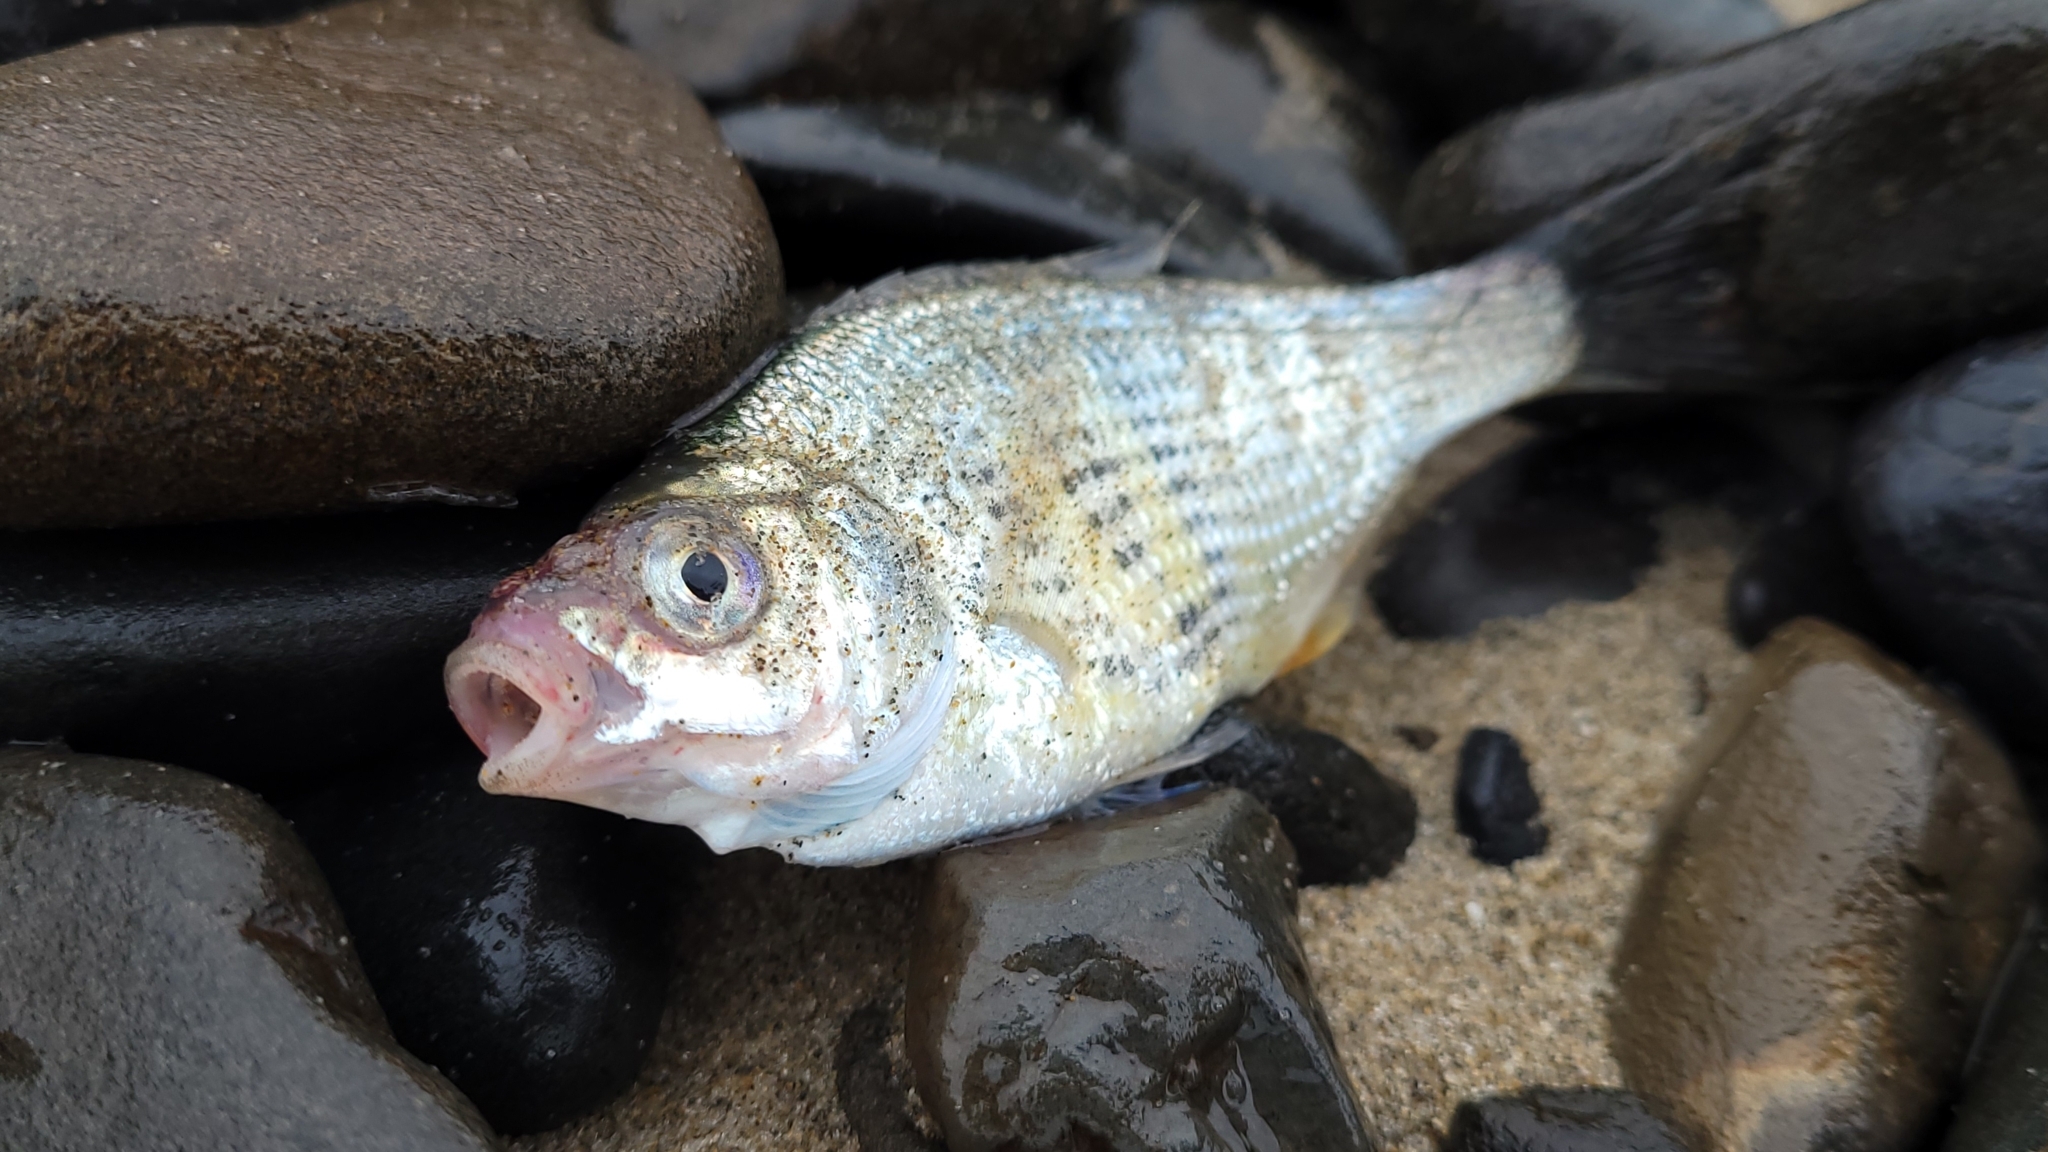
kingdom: Animalia
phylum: Chordata
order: Perciformes
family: Embiotocidae
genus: Cymatogaster
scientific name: Cymatogaster aggregata
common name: Shiner perch
